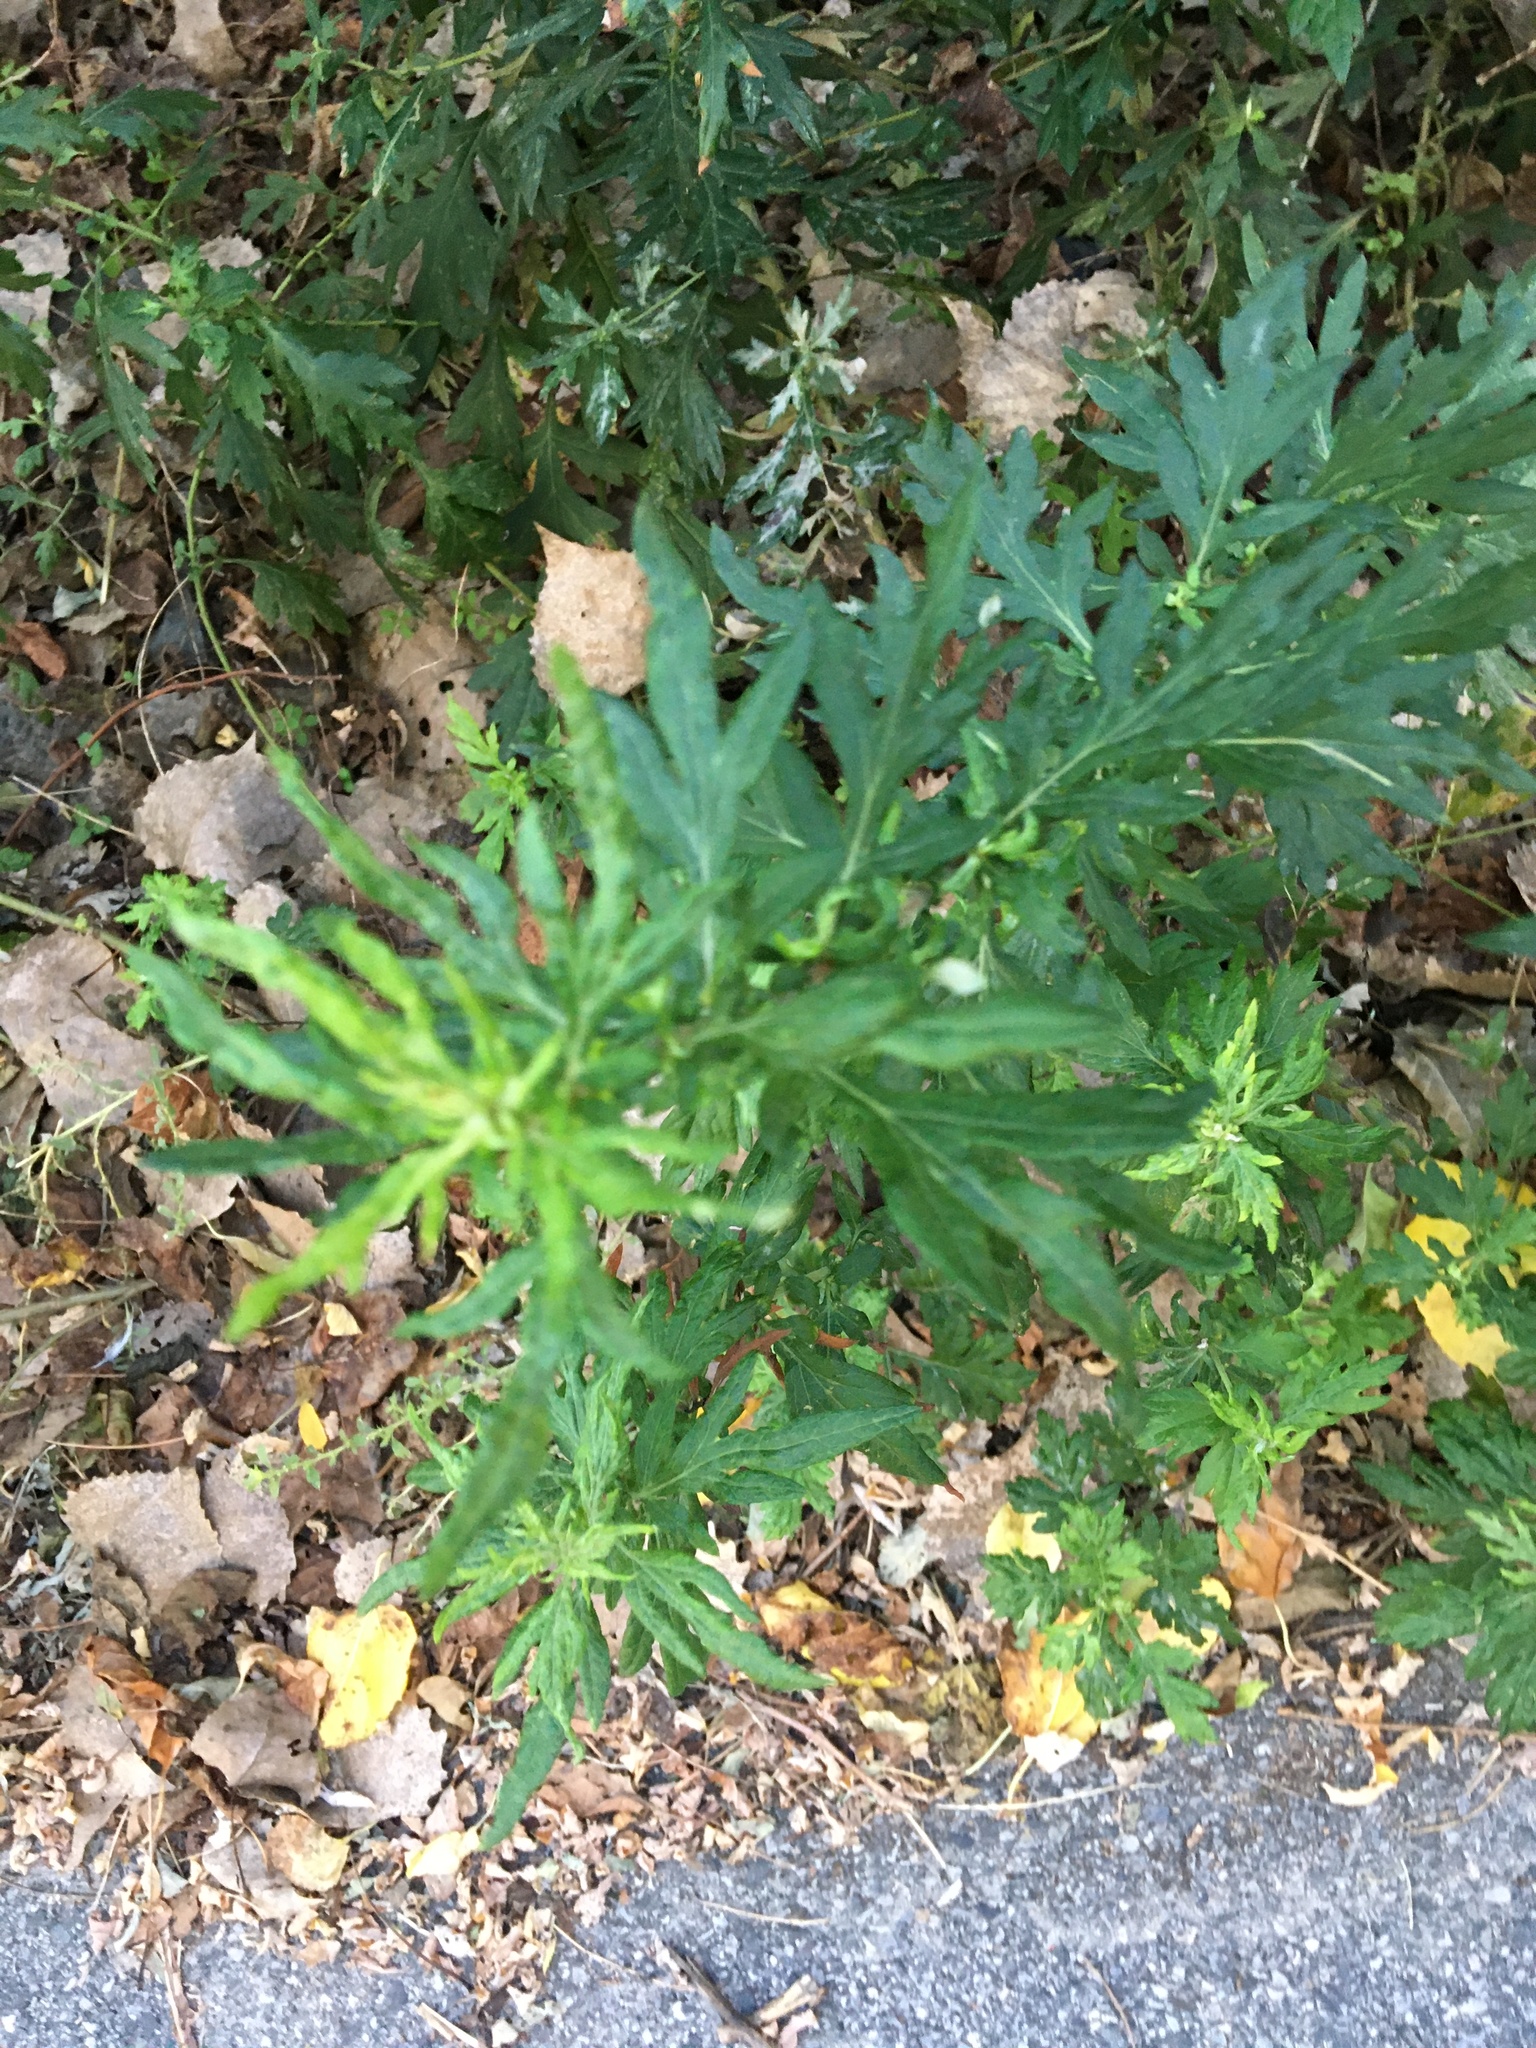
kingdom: Plantae
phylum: Tracheophyta
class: Magnoliopsida
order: Asterales
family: Asteraceae
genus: Artemisia
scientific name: Artemisia vulgaris
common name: Mugwort
